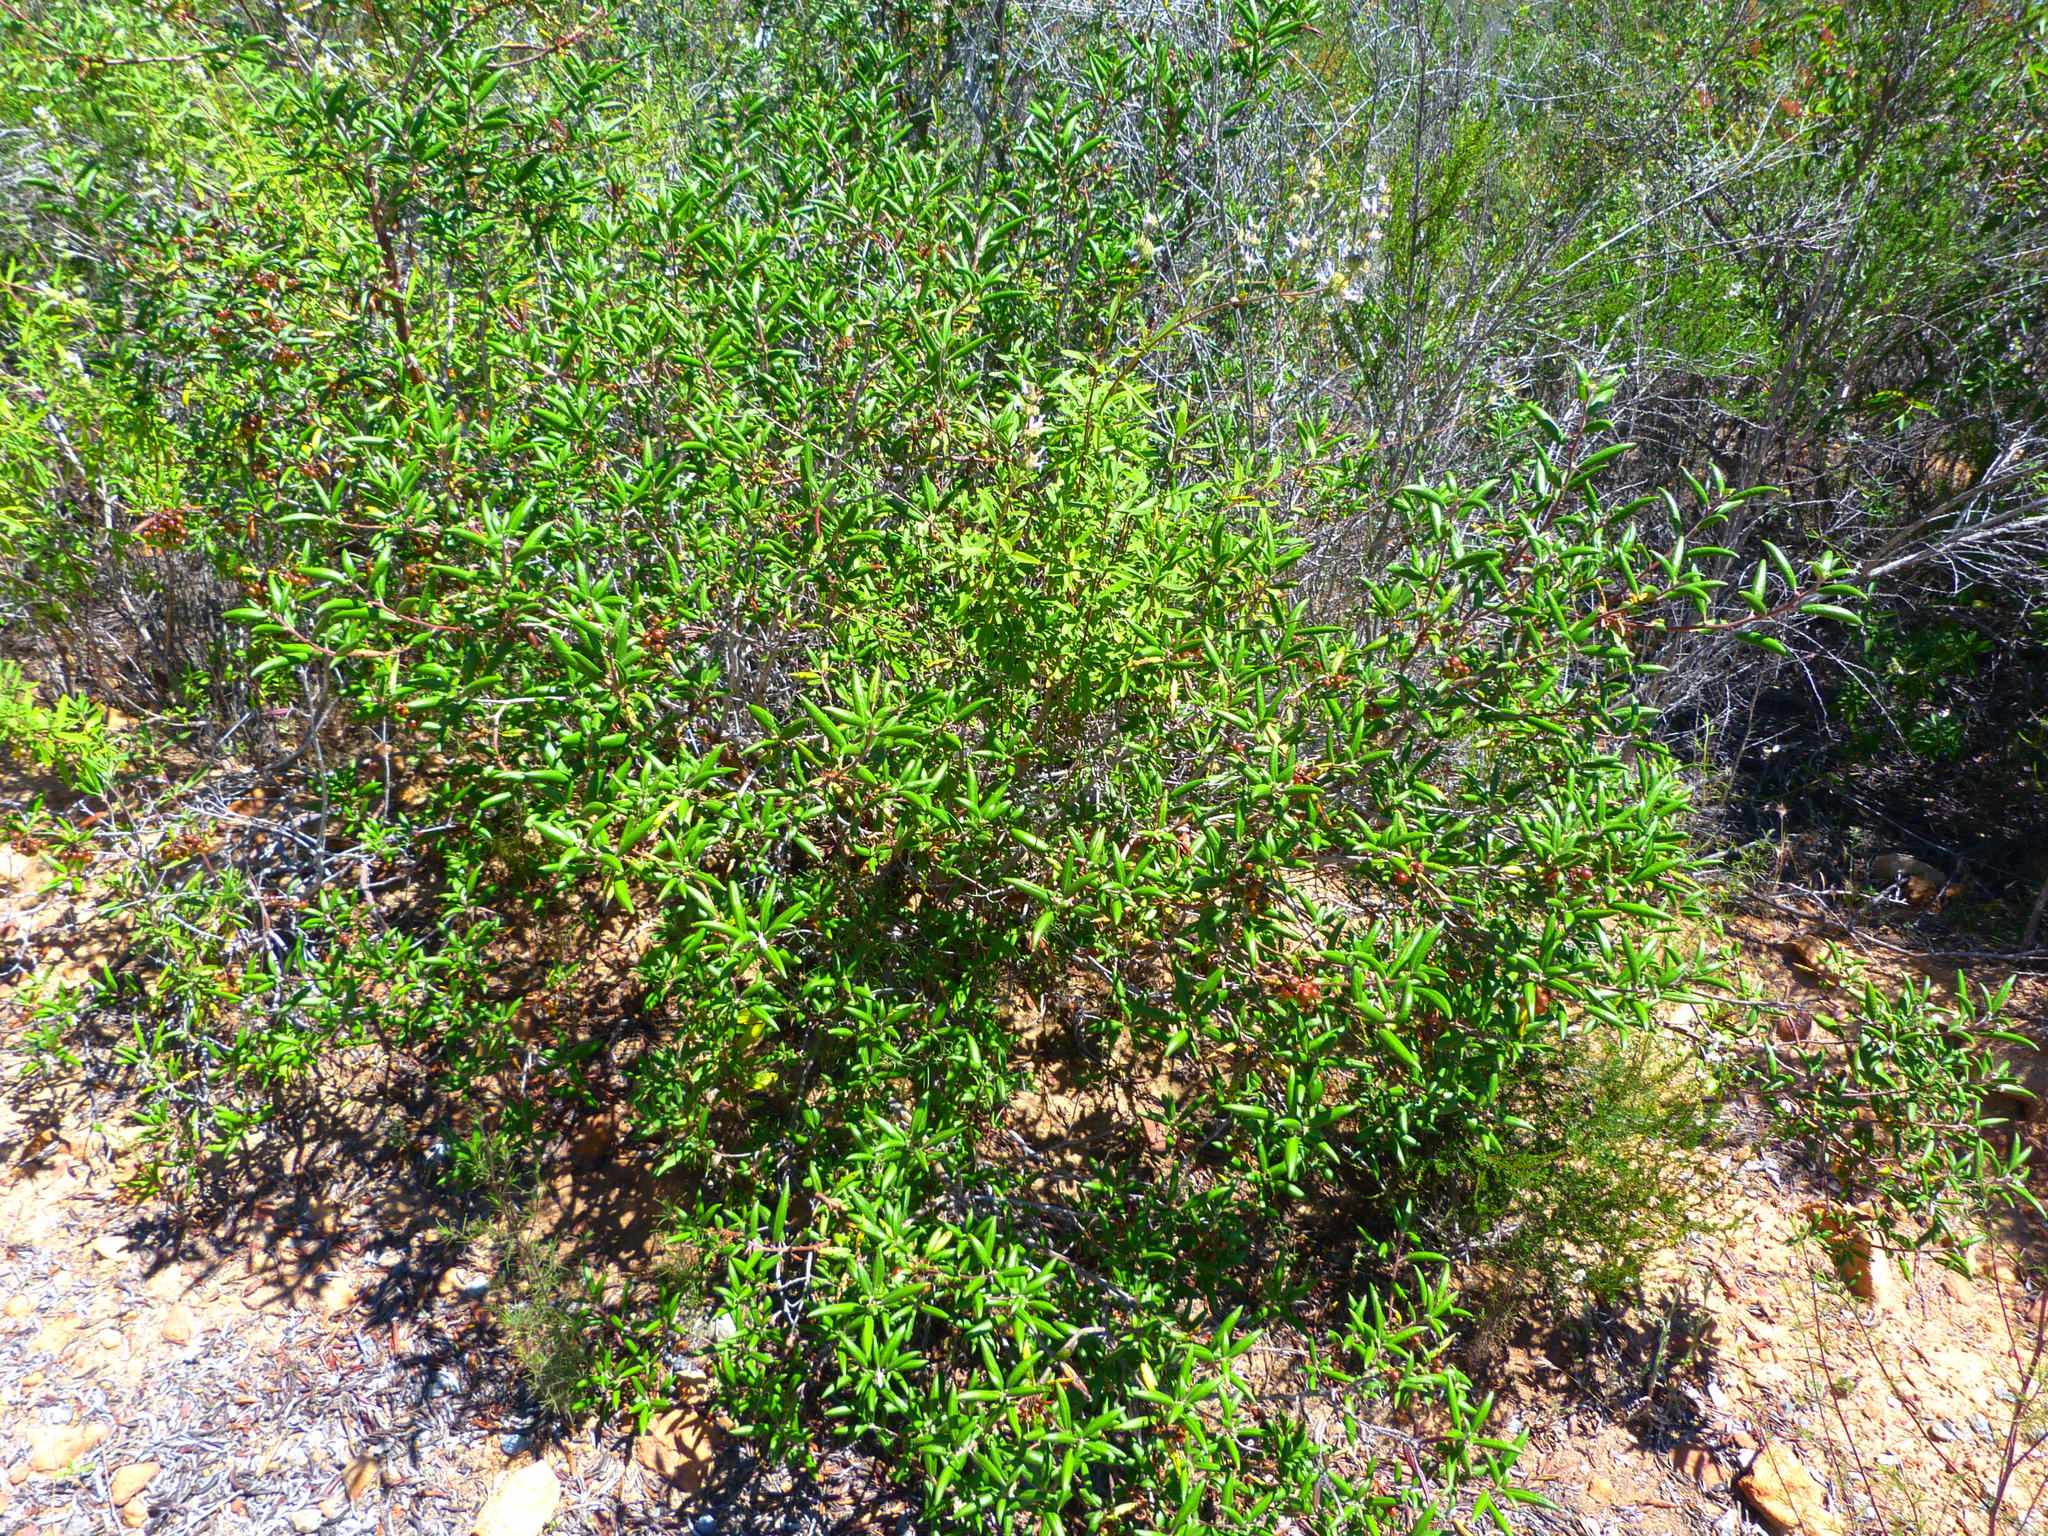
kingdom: Plantae
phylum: Tracheophyta
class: Magnoliopsida
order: Ericales
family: Ericaceae
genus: Arctostaphylos
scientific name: Arctostaphylos bicolor
